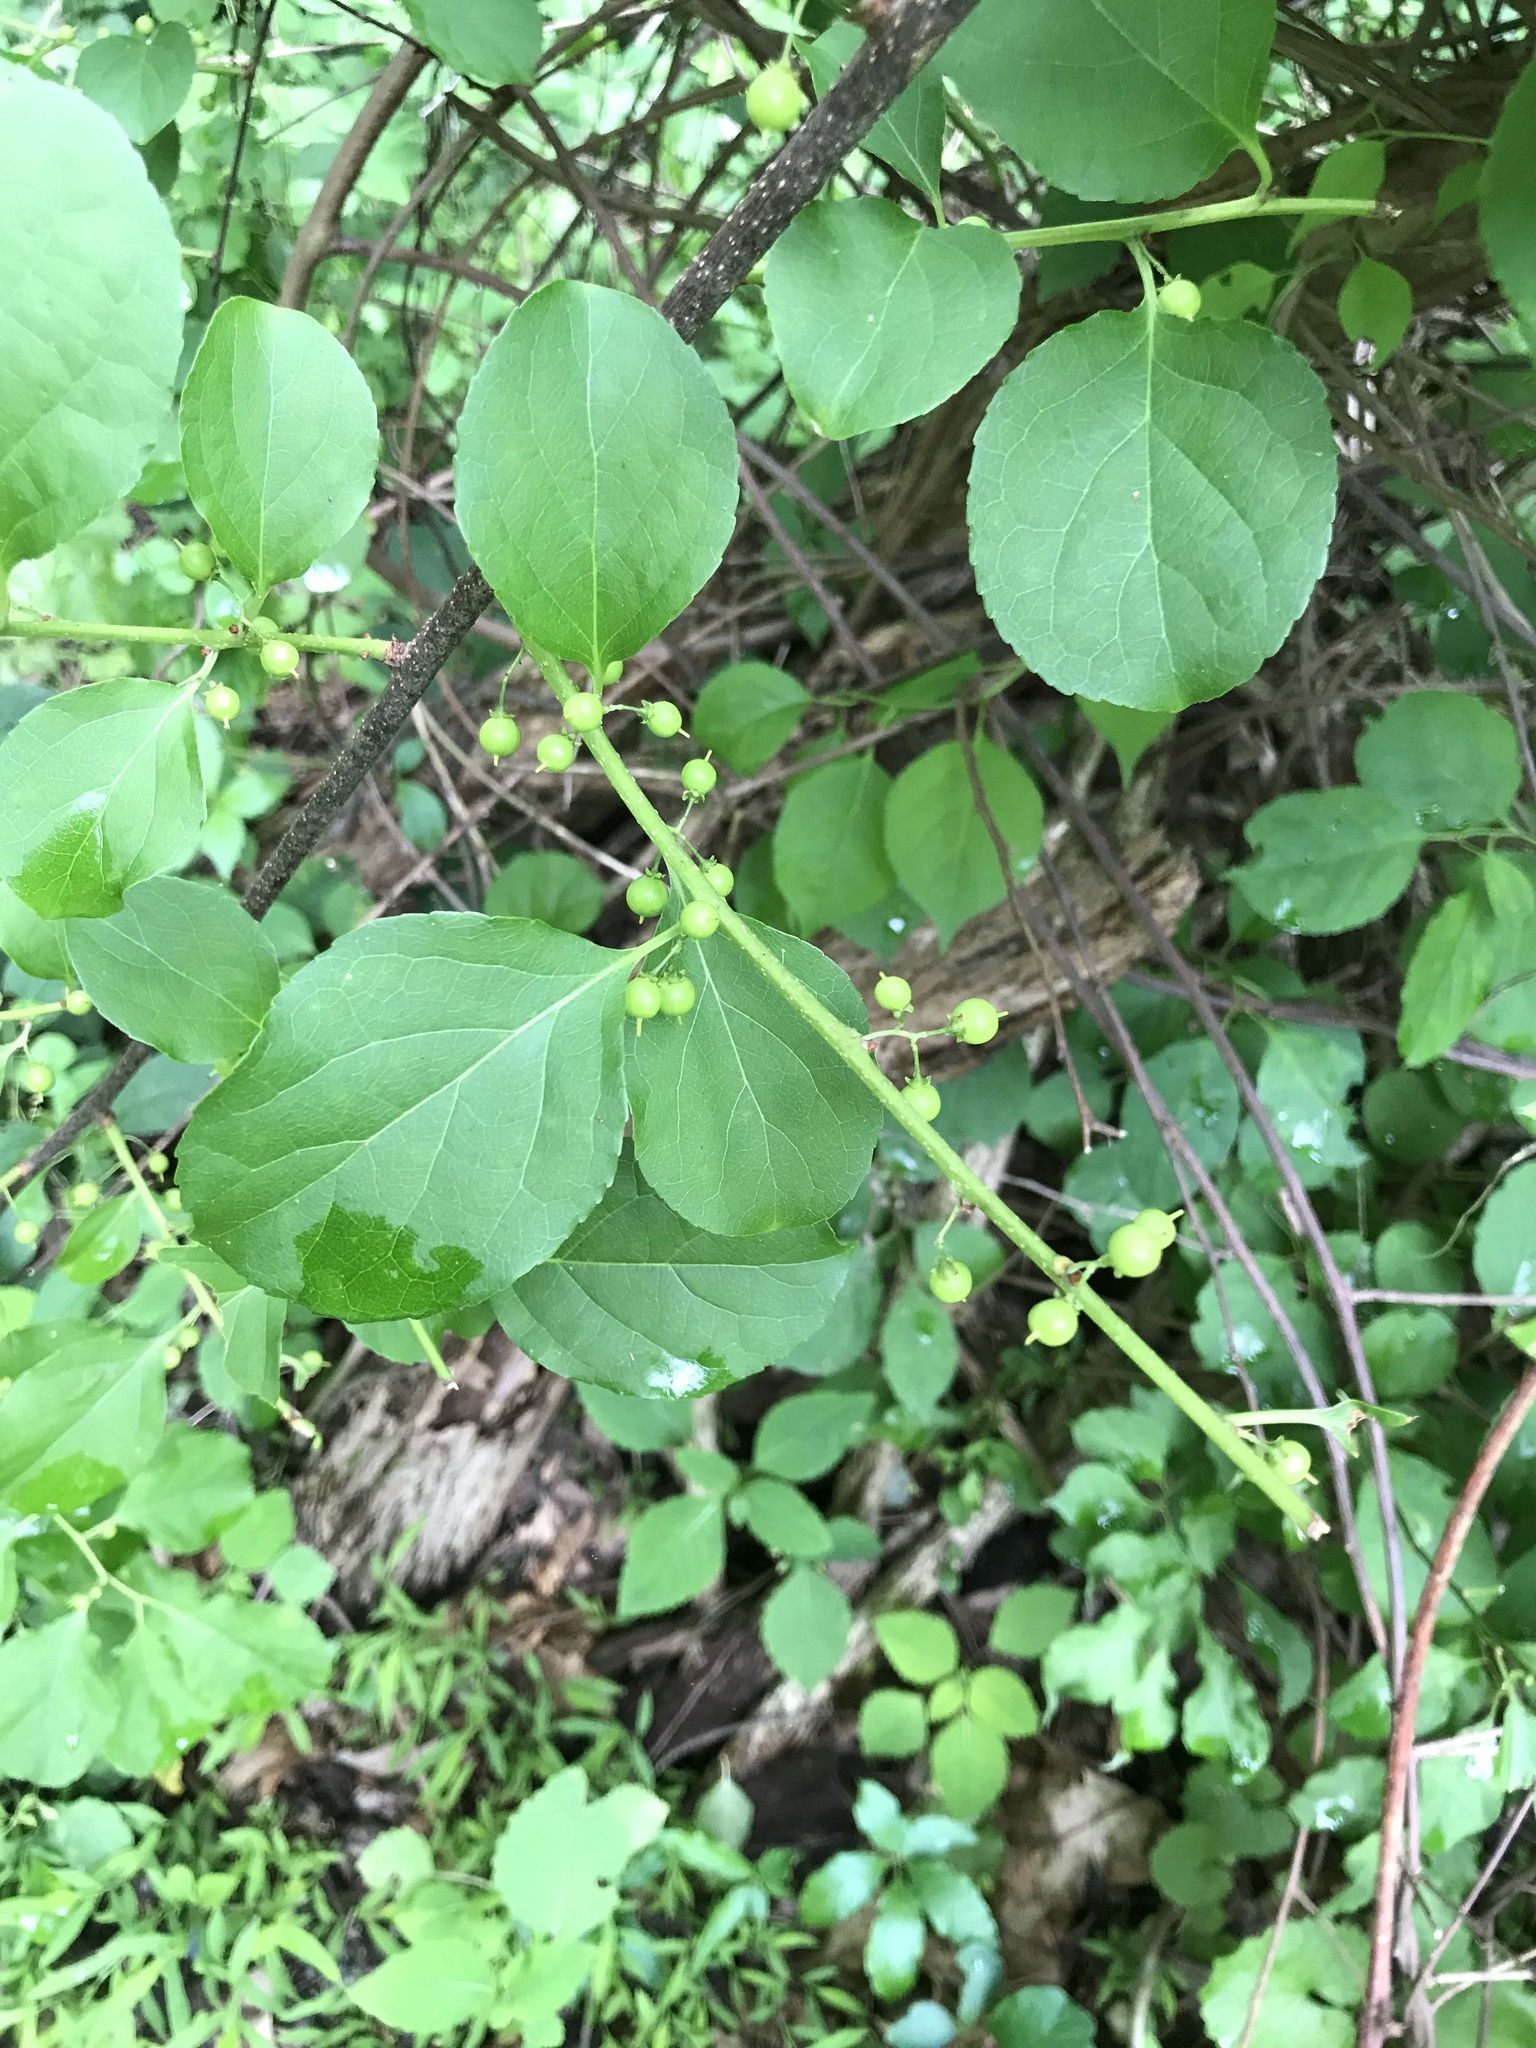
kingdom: Plantae
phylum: Tracheophyta
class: Magnoliopsida
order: Celastrales
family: Celastraceae
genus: Celastrus
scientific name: Celastrus orbiculatus
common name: Oriental bittersweet
